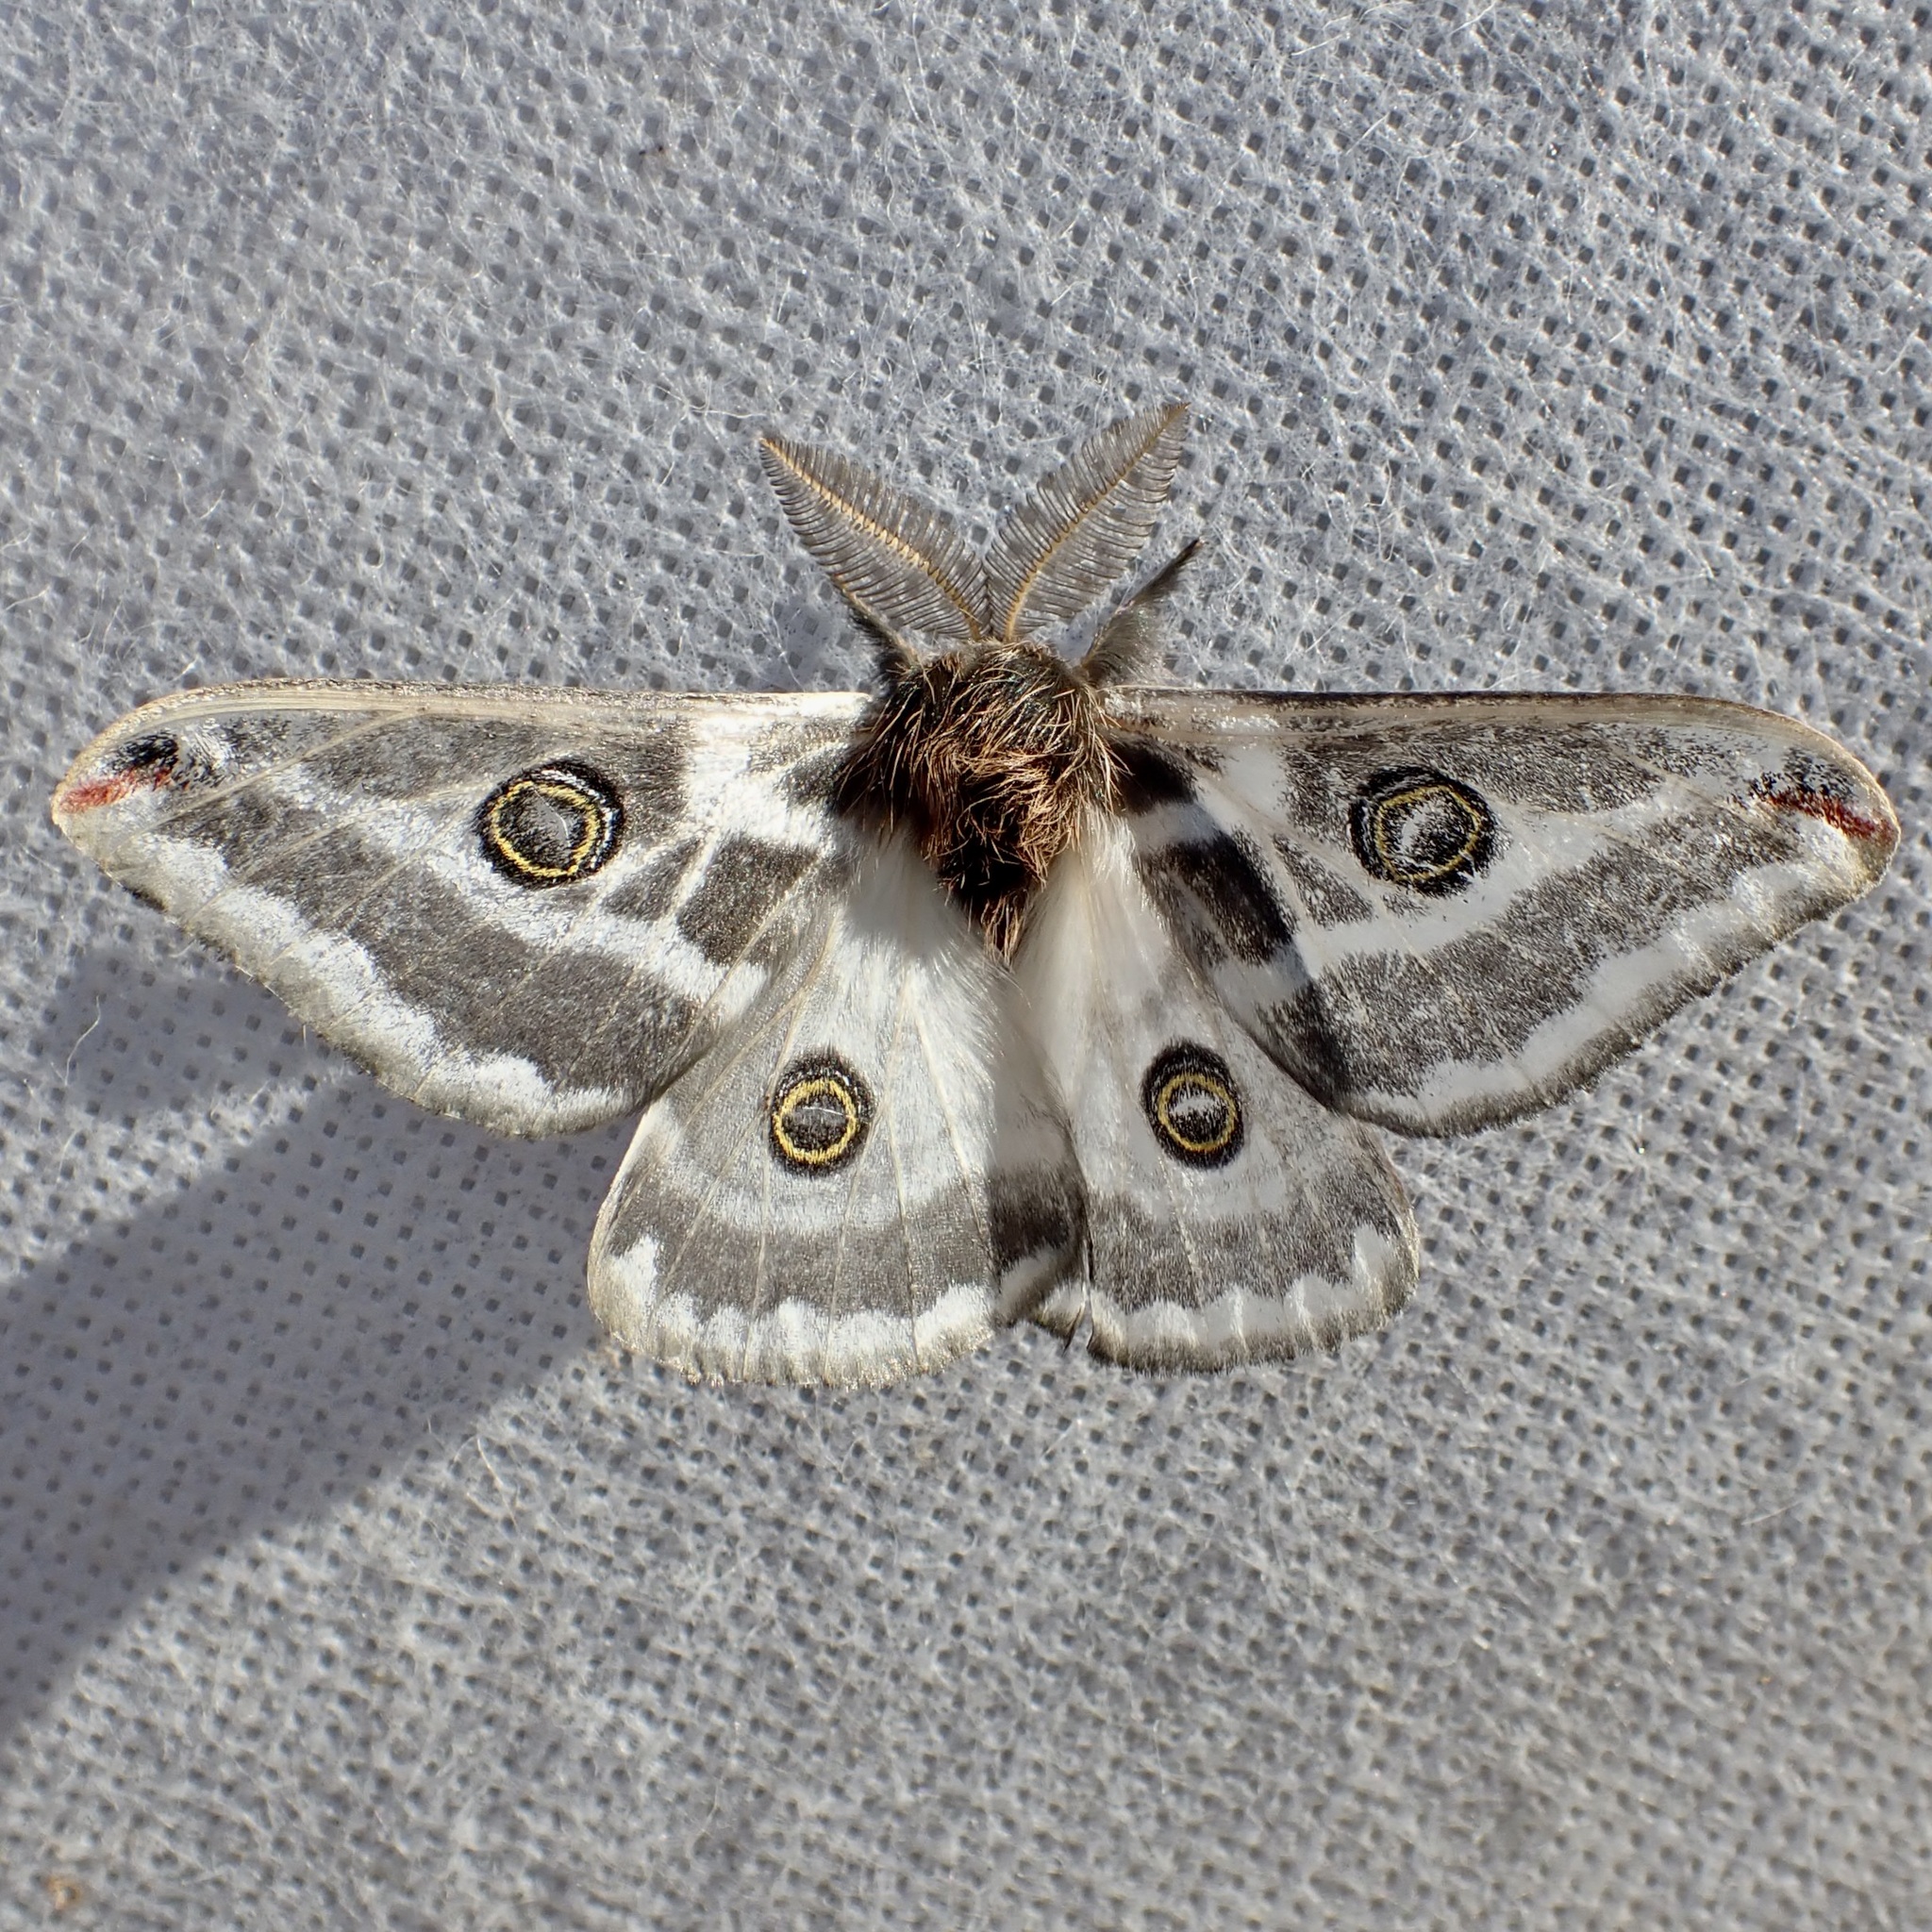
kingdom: Animalia
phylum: Arthropoda
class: Insecta
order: Lepidoptera
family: Saturniidae
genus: Saturnia
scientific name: Saturnia anona
